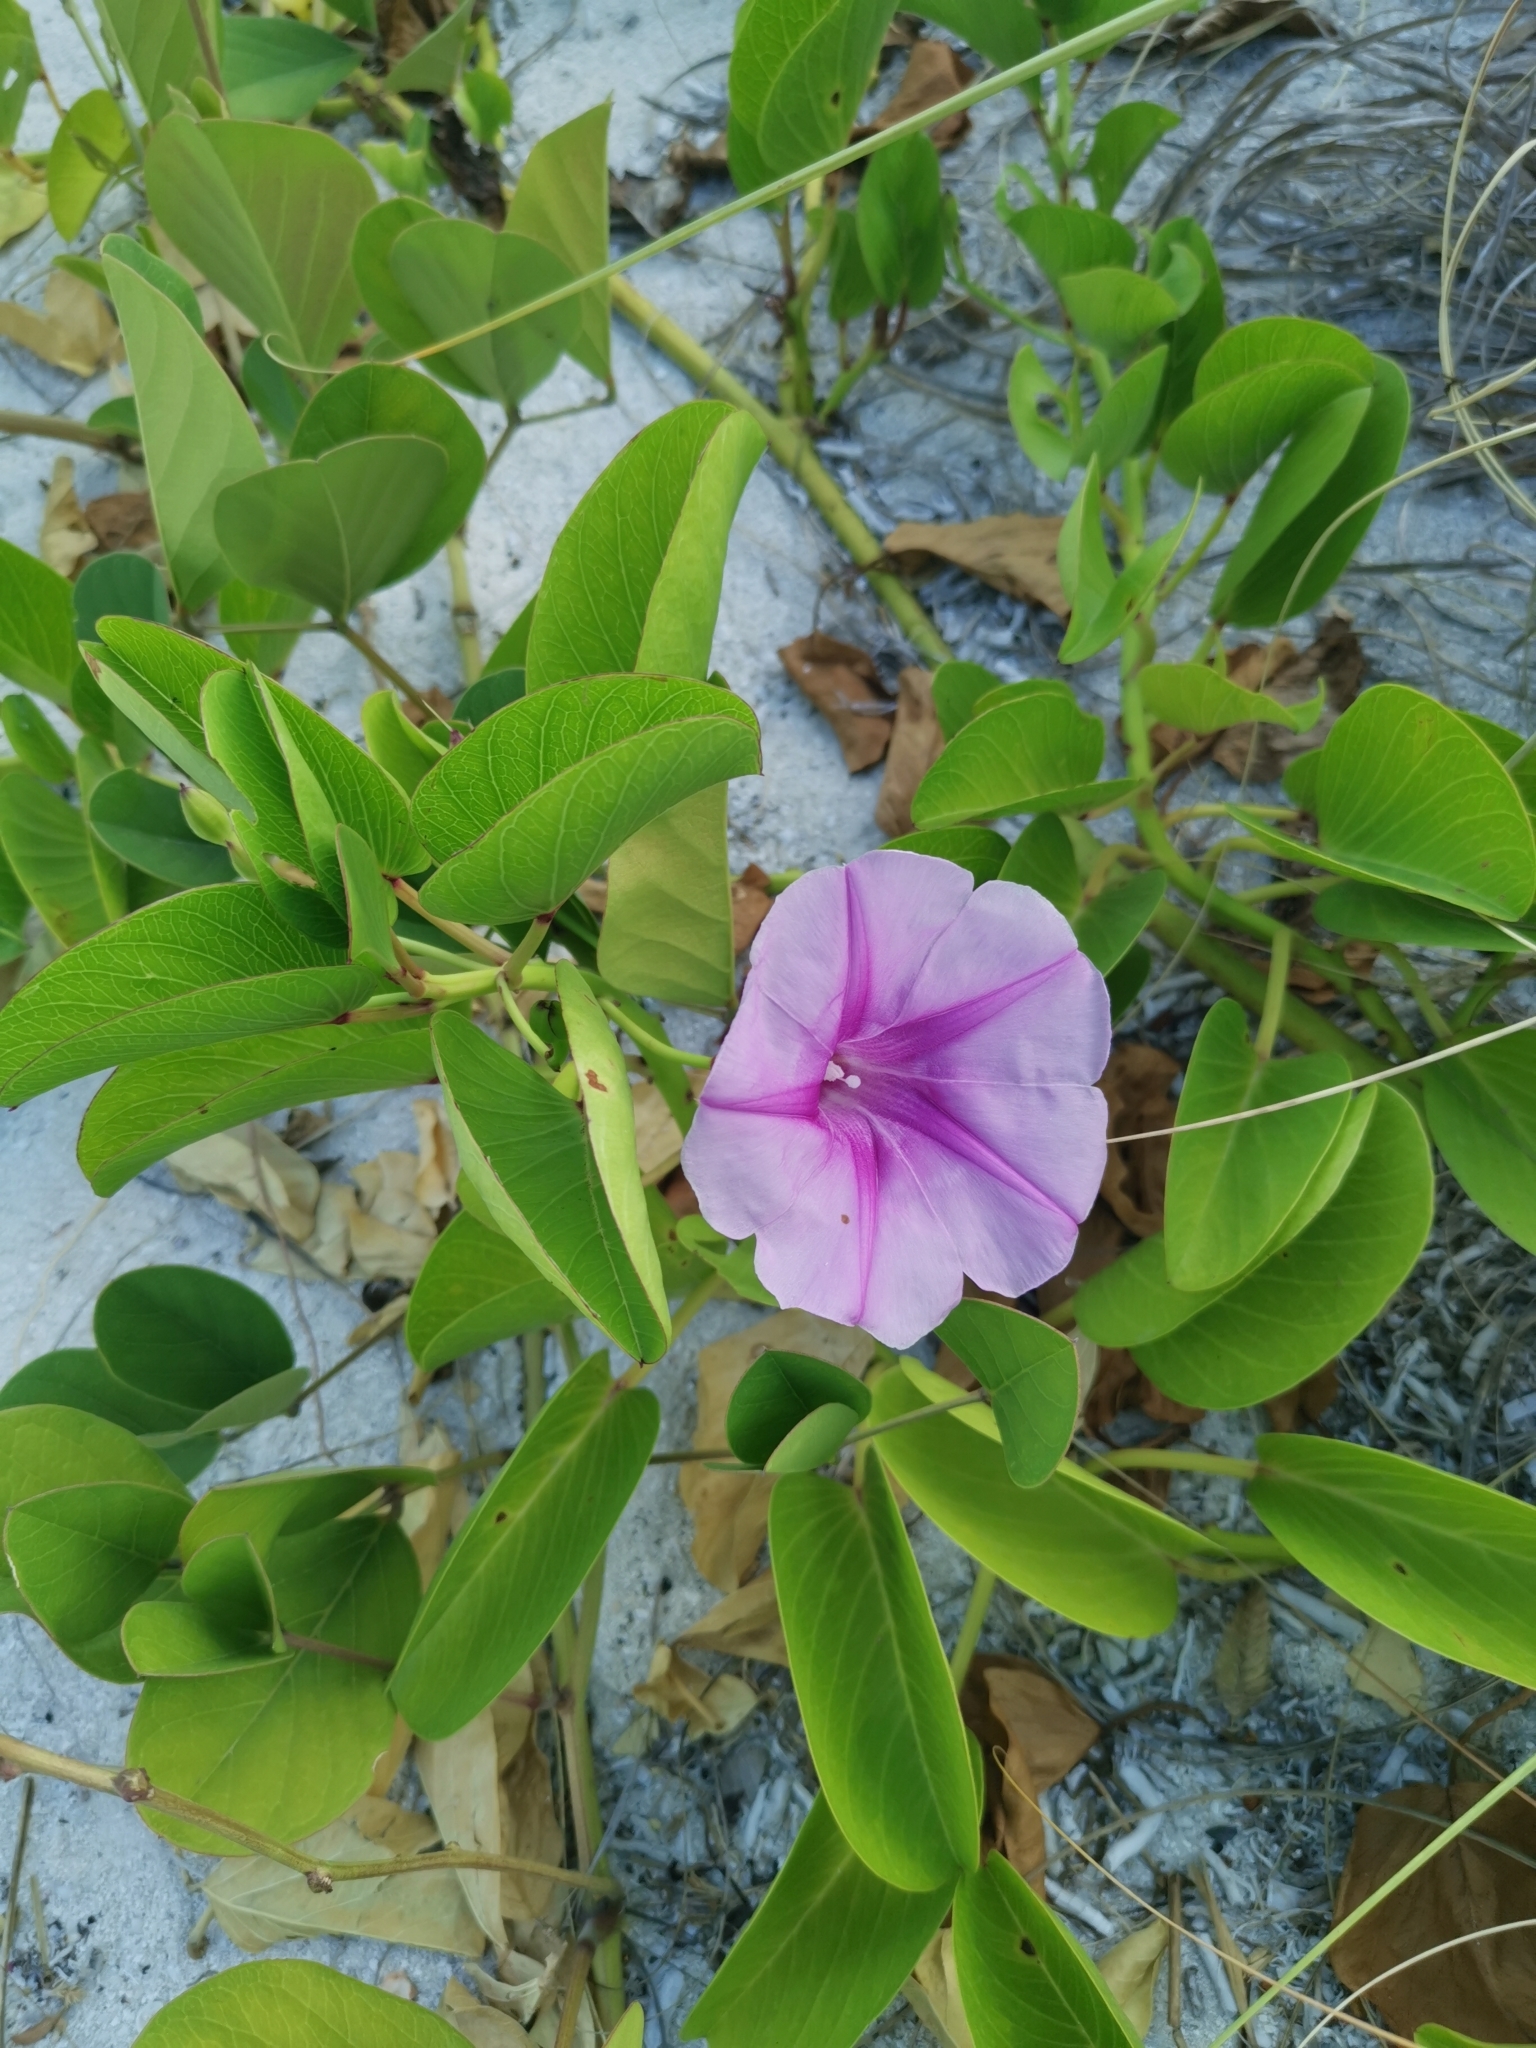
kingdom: Plantae
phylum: Tracheophyta
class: Magnoliopsida
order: Solanales
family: Convolvulaceae
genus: Ipomoea
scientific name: Ipomoea pes-caprae
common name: Beach morning glory
